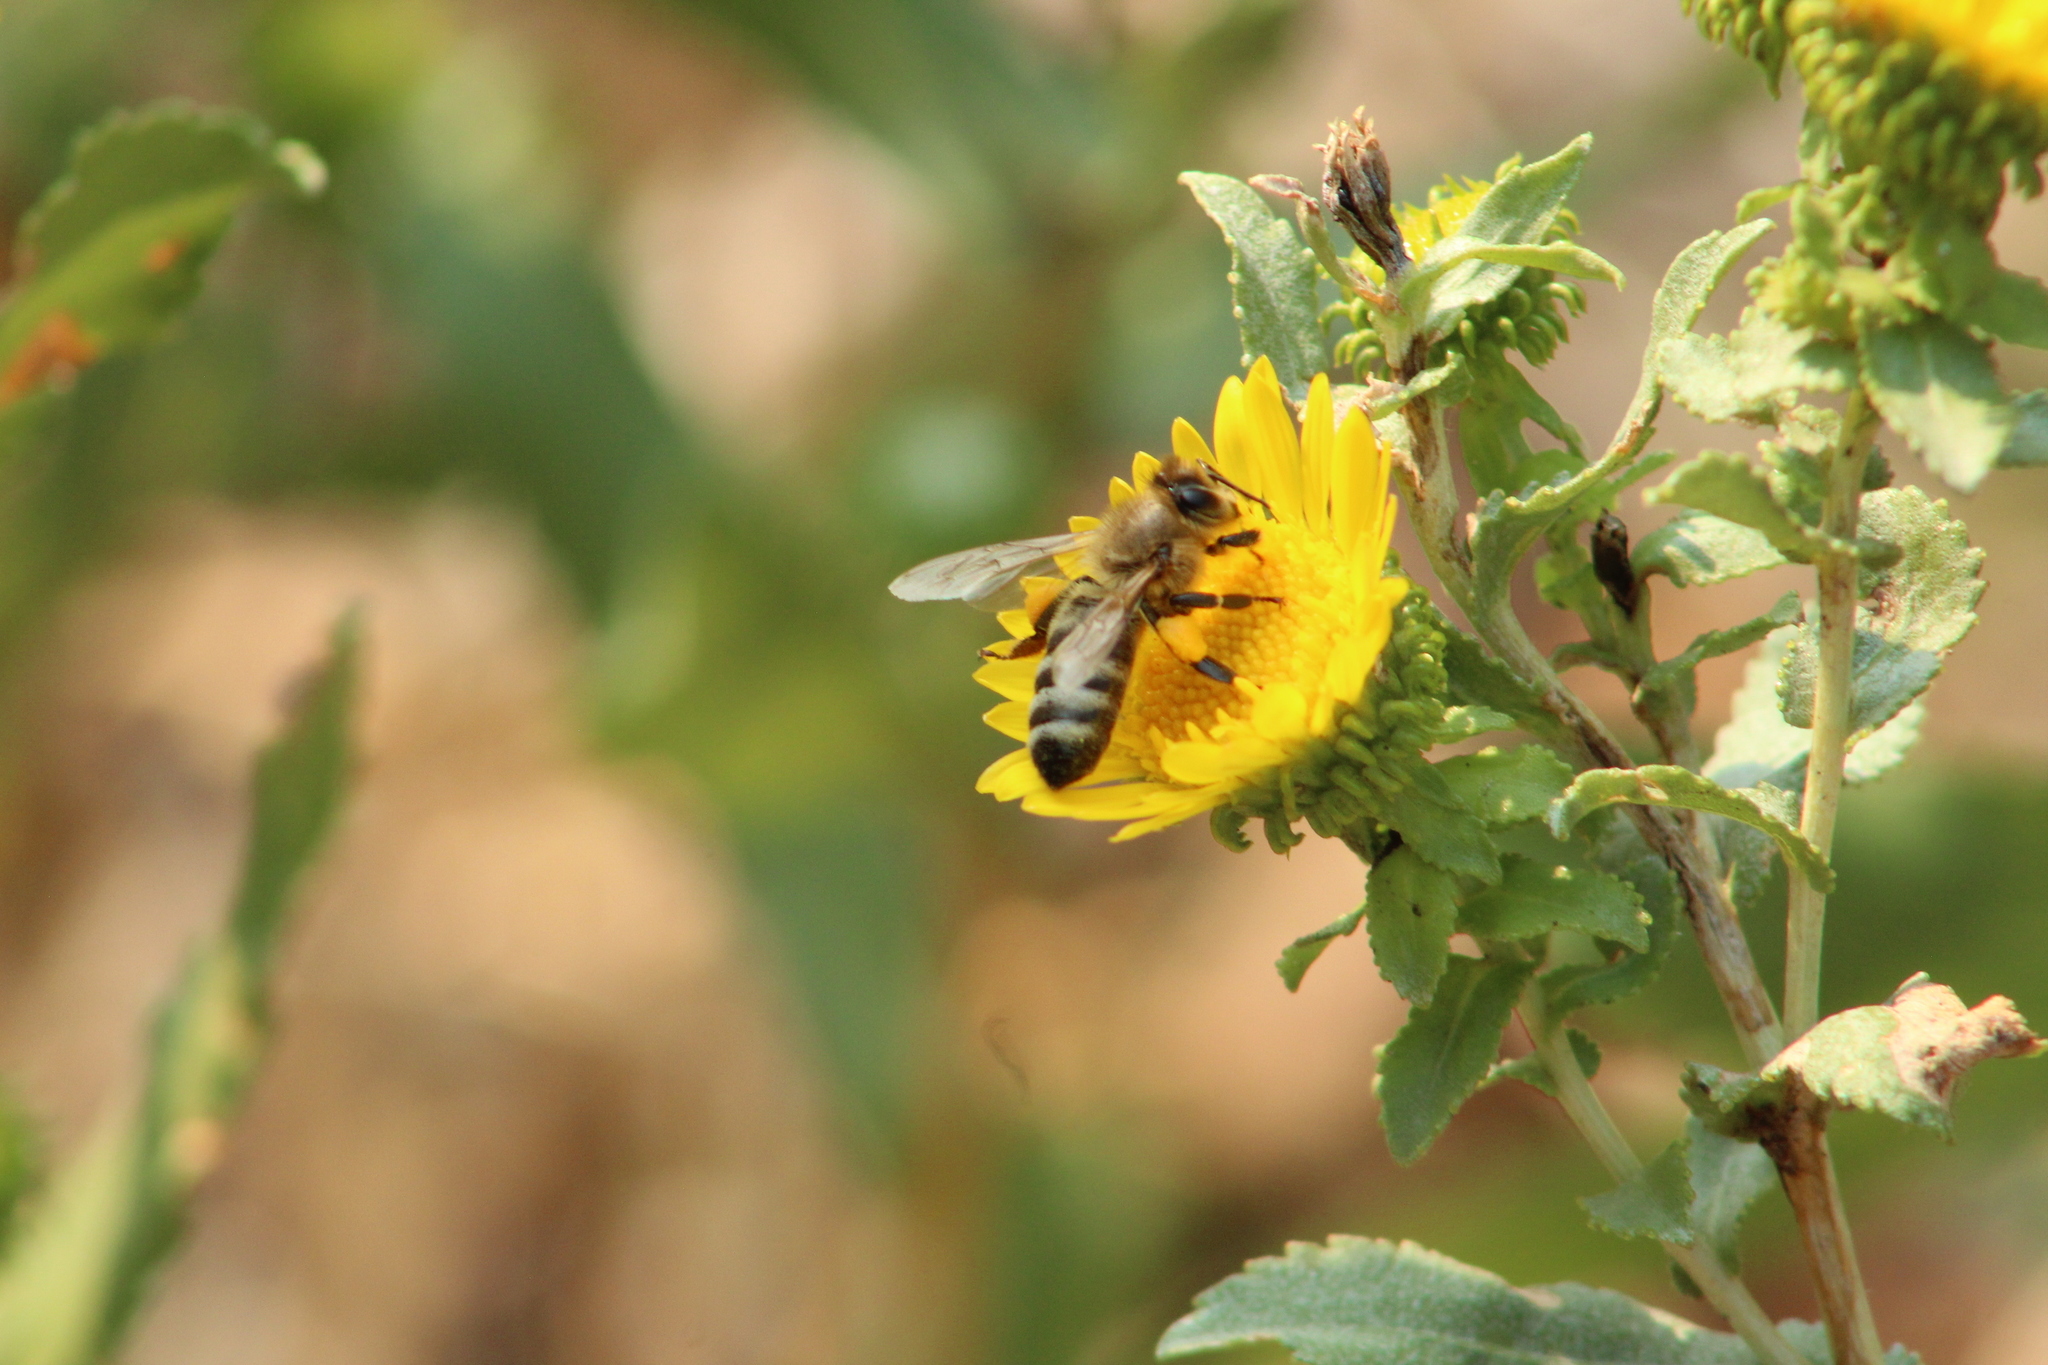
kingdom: Animalia
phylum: Arthropoda
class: Insecta
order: Hymenoptera
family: Apidae
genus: Apis
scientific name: Apis mellifera
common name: Honey bee
